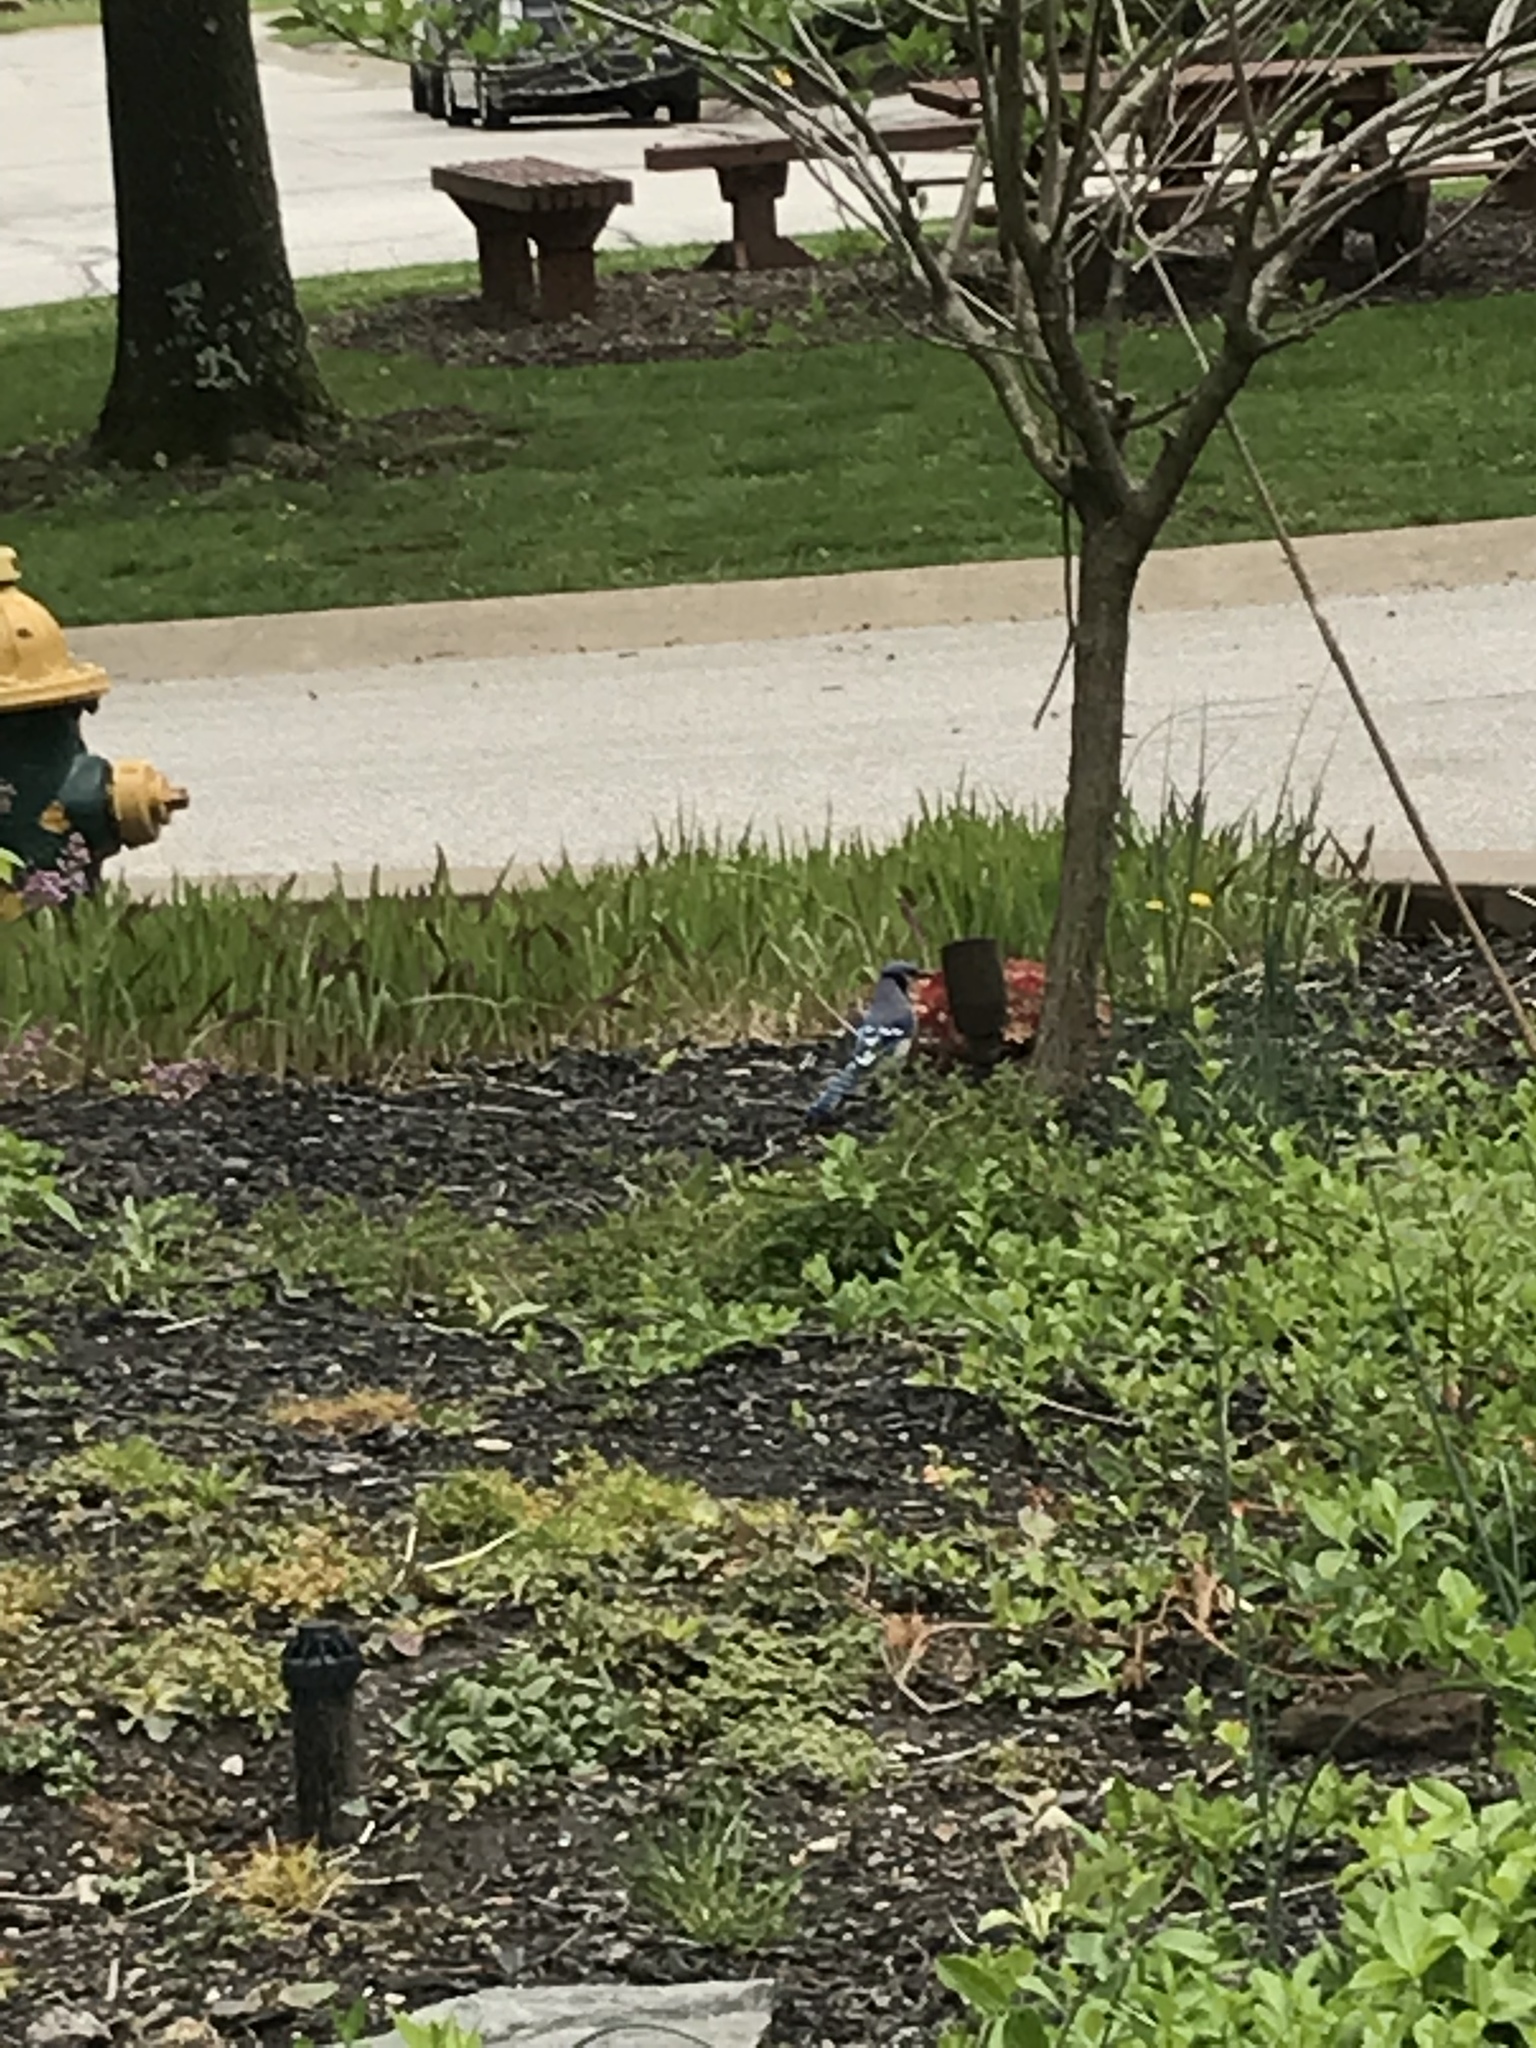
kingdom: Animalia
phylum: Chordata
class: Aves
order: Passeriformes
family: Corvidae
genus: Cyanocitta
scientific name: Cyanocitta cristata
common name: Blue jay
